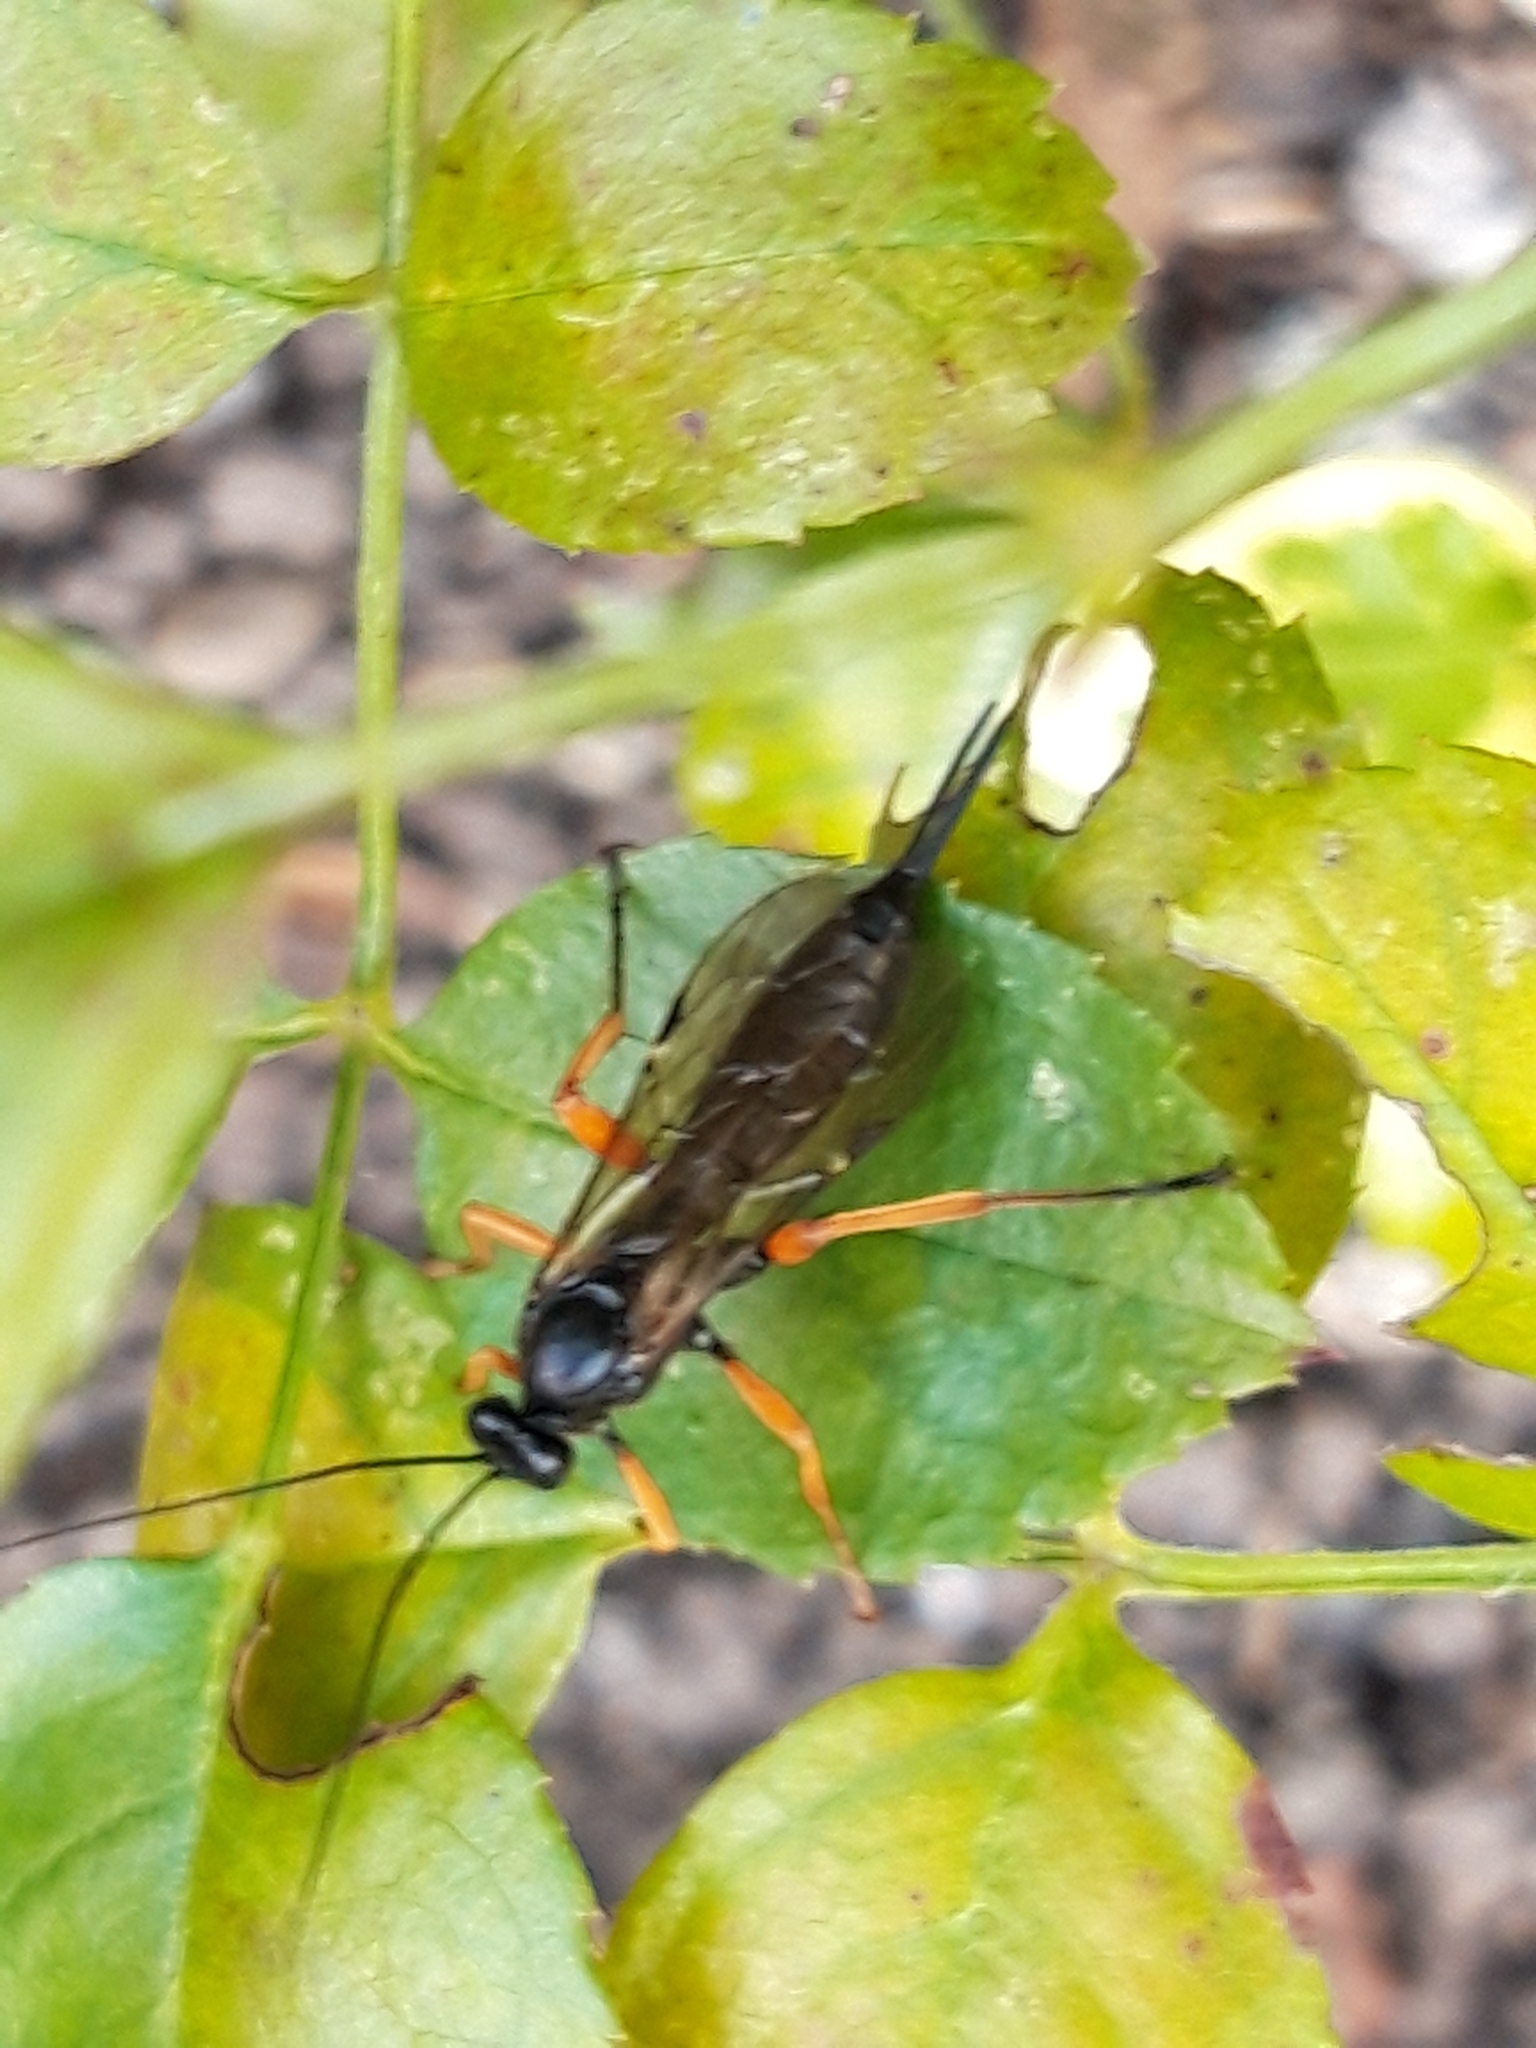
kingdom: Animalia
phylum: Arthropoda
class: Insecta
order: Hymenoptera
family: Ichneumonidae
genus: Pimpla
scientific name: Pimpla rufipes
